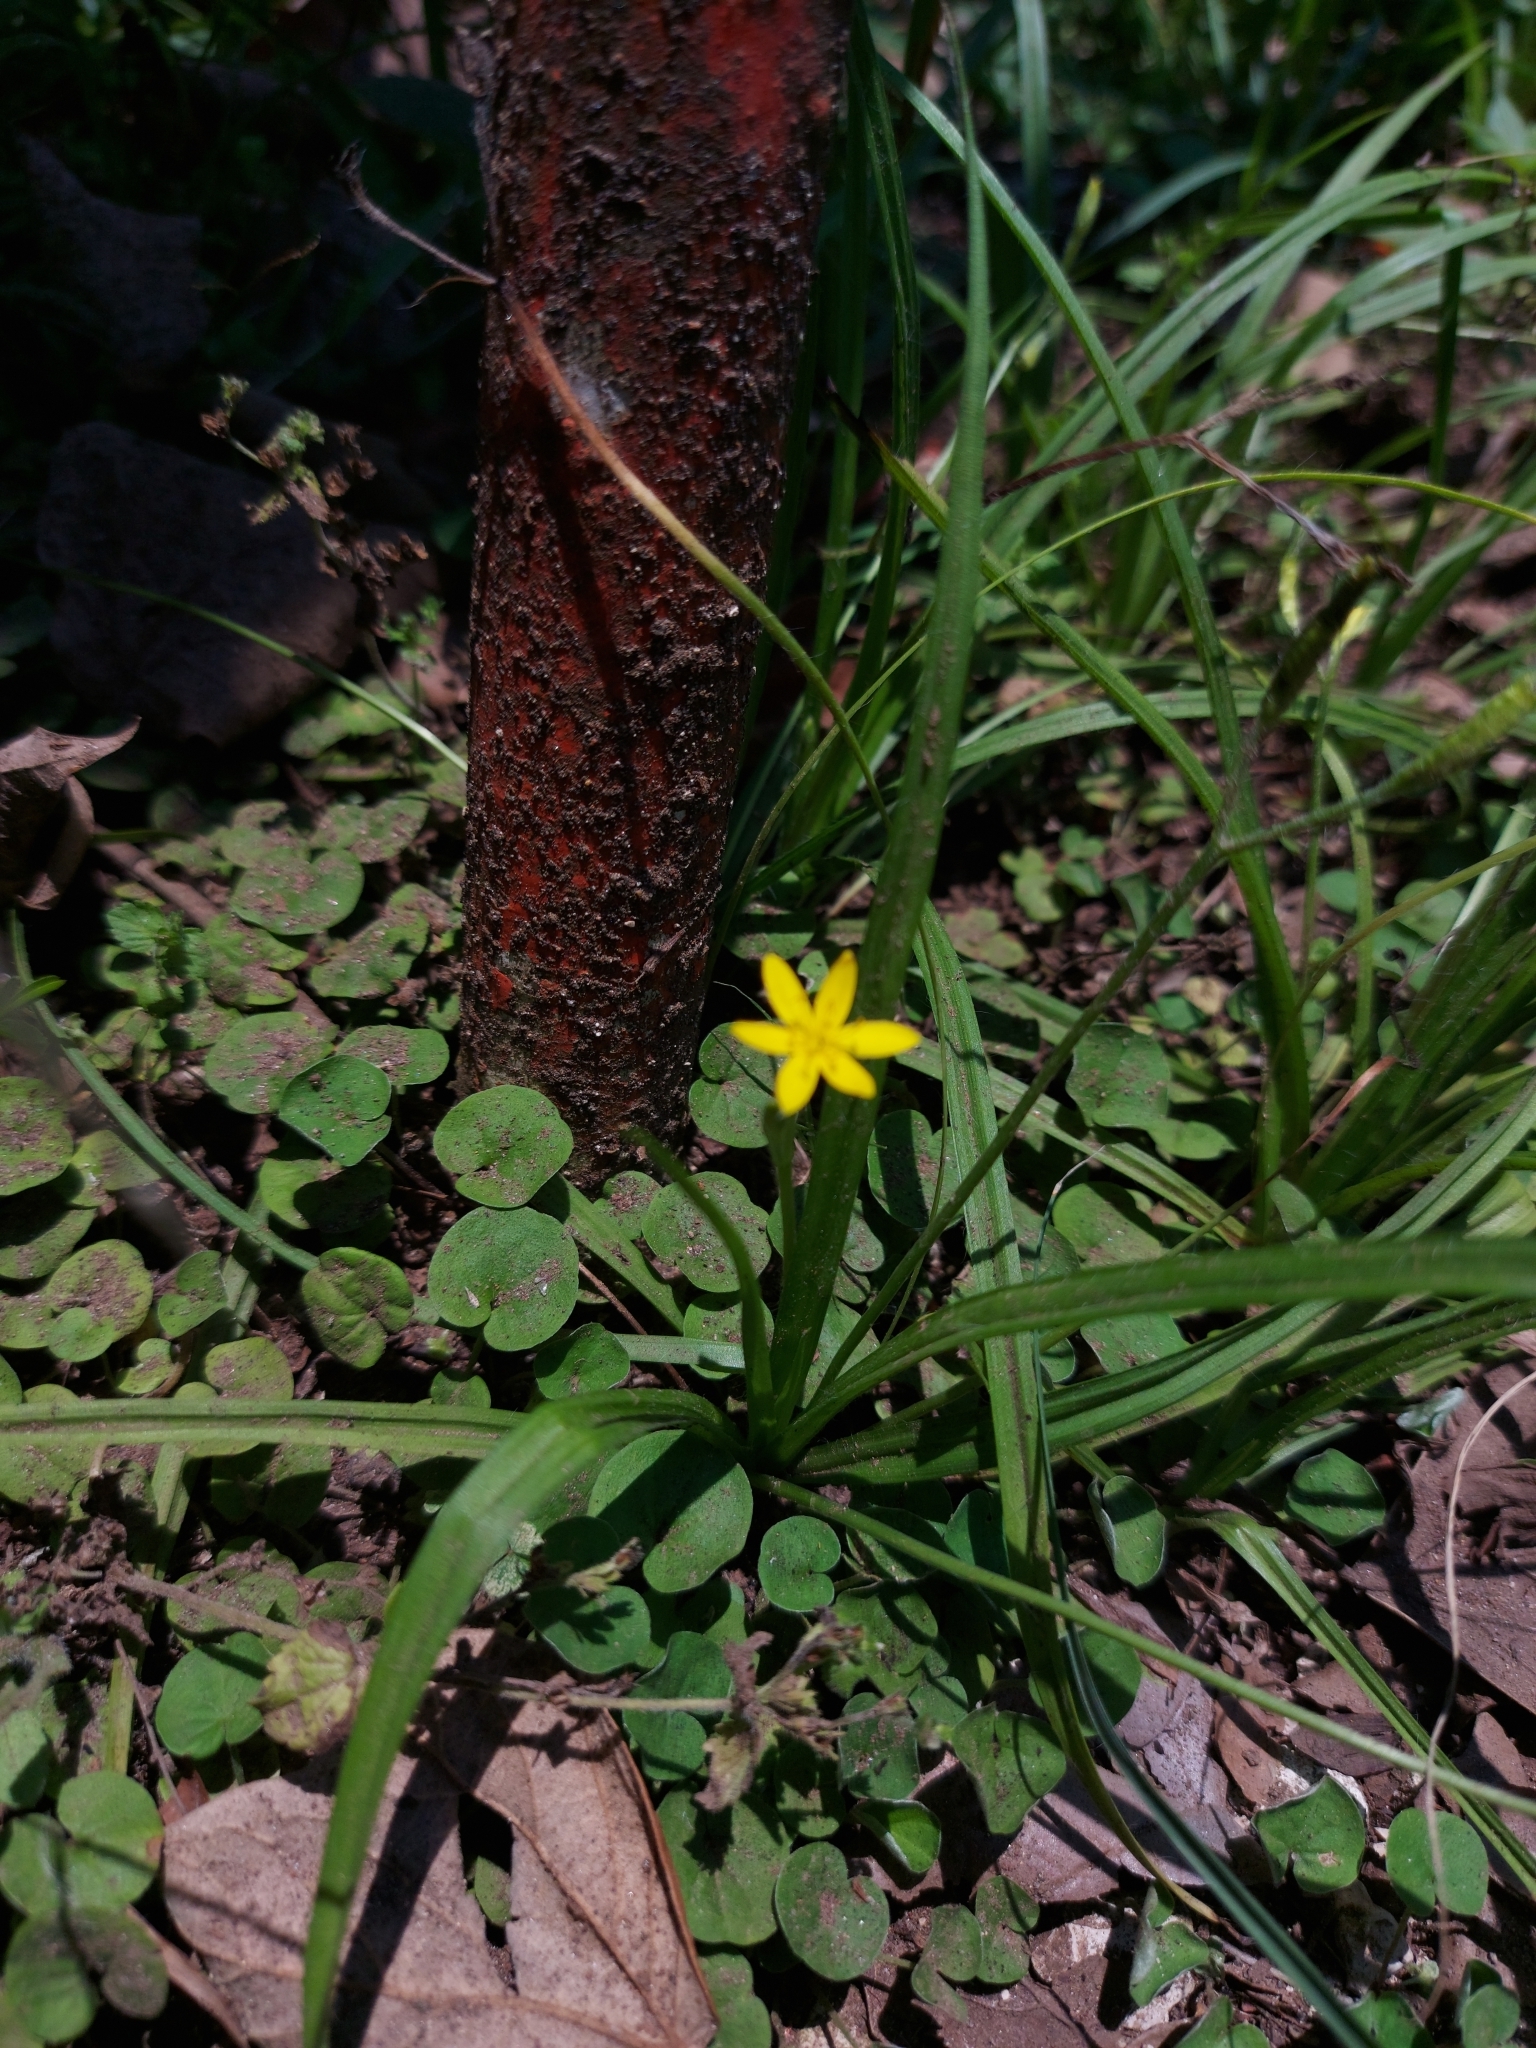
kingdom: Plantae
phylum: Tracheophyta
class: Liliopsida
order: Asparagales
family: Hypoxidaceae
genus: Hypoxis
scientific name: Hypoxis hirsuta
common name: Common goldstar
